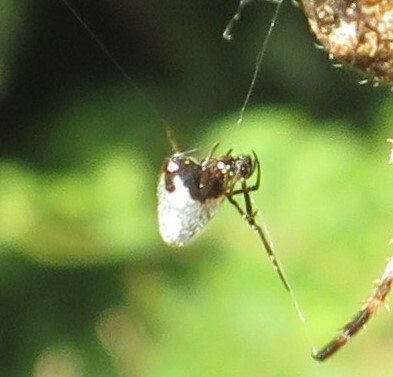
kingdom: Animalia
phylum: Arthropoda
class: Arachnida
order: Araneae
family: Theridiidae
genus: Argyrodes
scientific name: Argyrodes antipodianus
